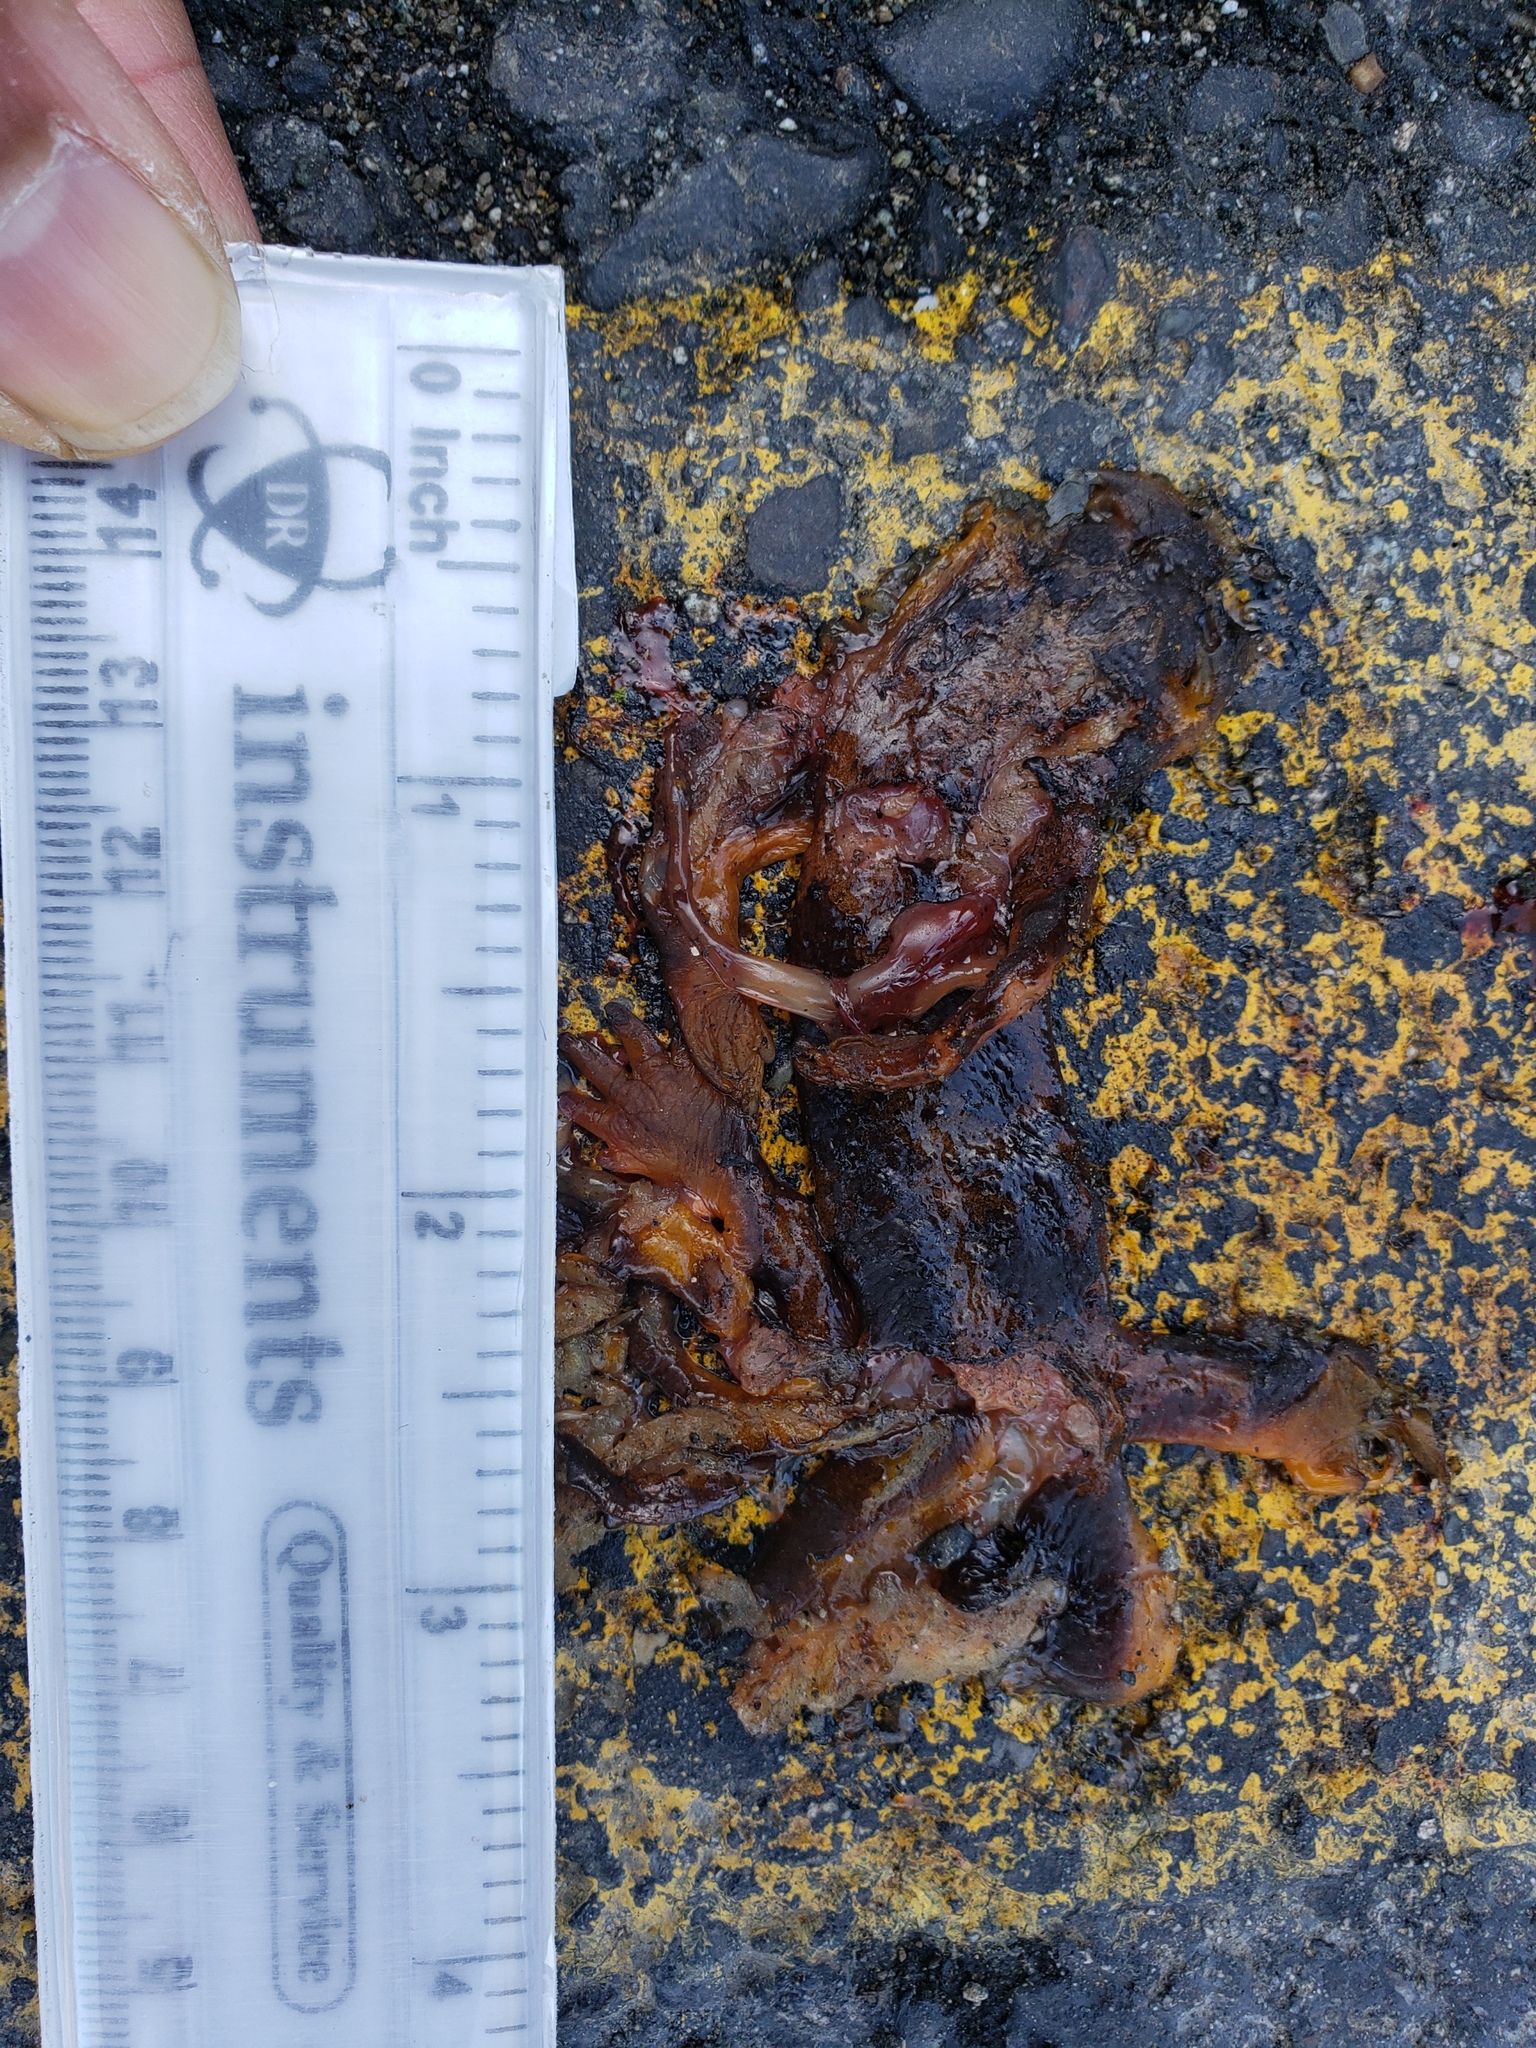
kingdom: Animalia
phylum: Chordata
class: Amphibia
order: Caudata
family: Salamandridae
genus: Taricha
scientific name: Taricha
